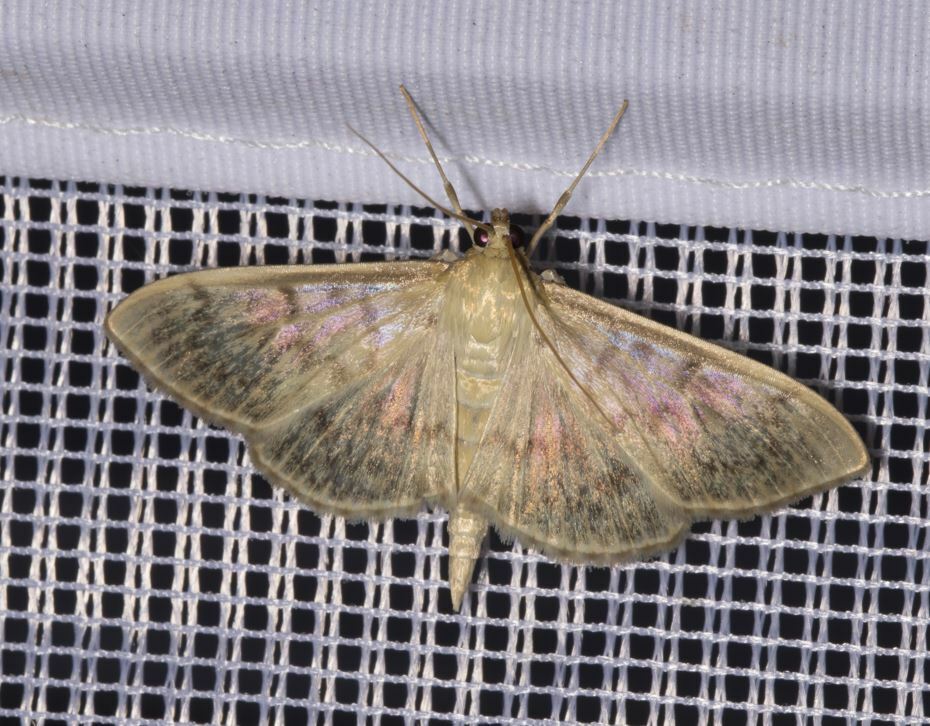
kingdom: Animalia
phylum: Arthropoda
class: Insecta
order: Lepidoptera
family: Crambidae
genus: Patania
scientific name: Patania ruralis
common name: Mother of pearl
